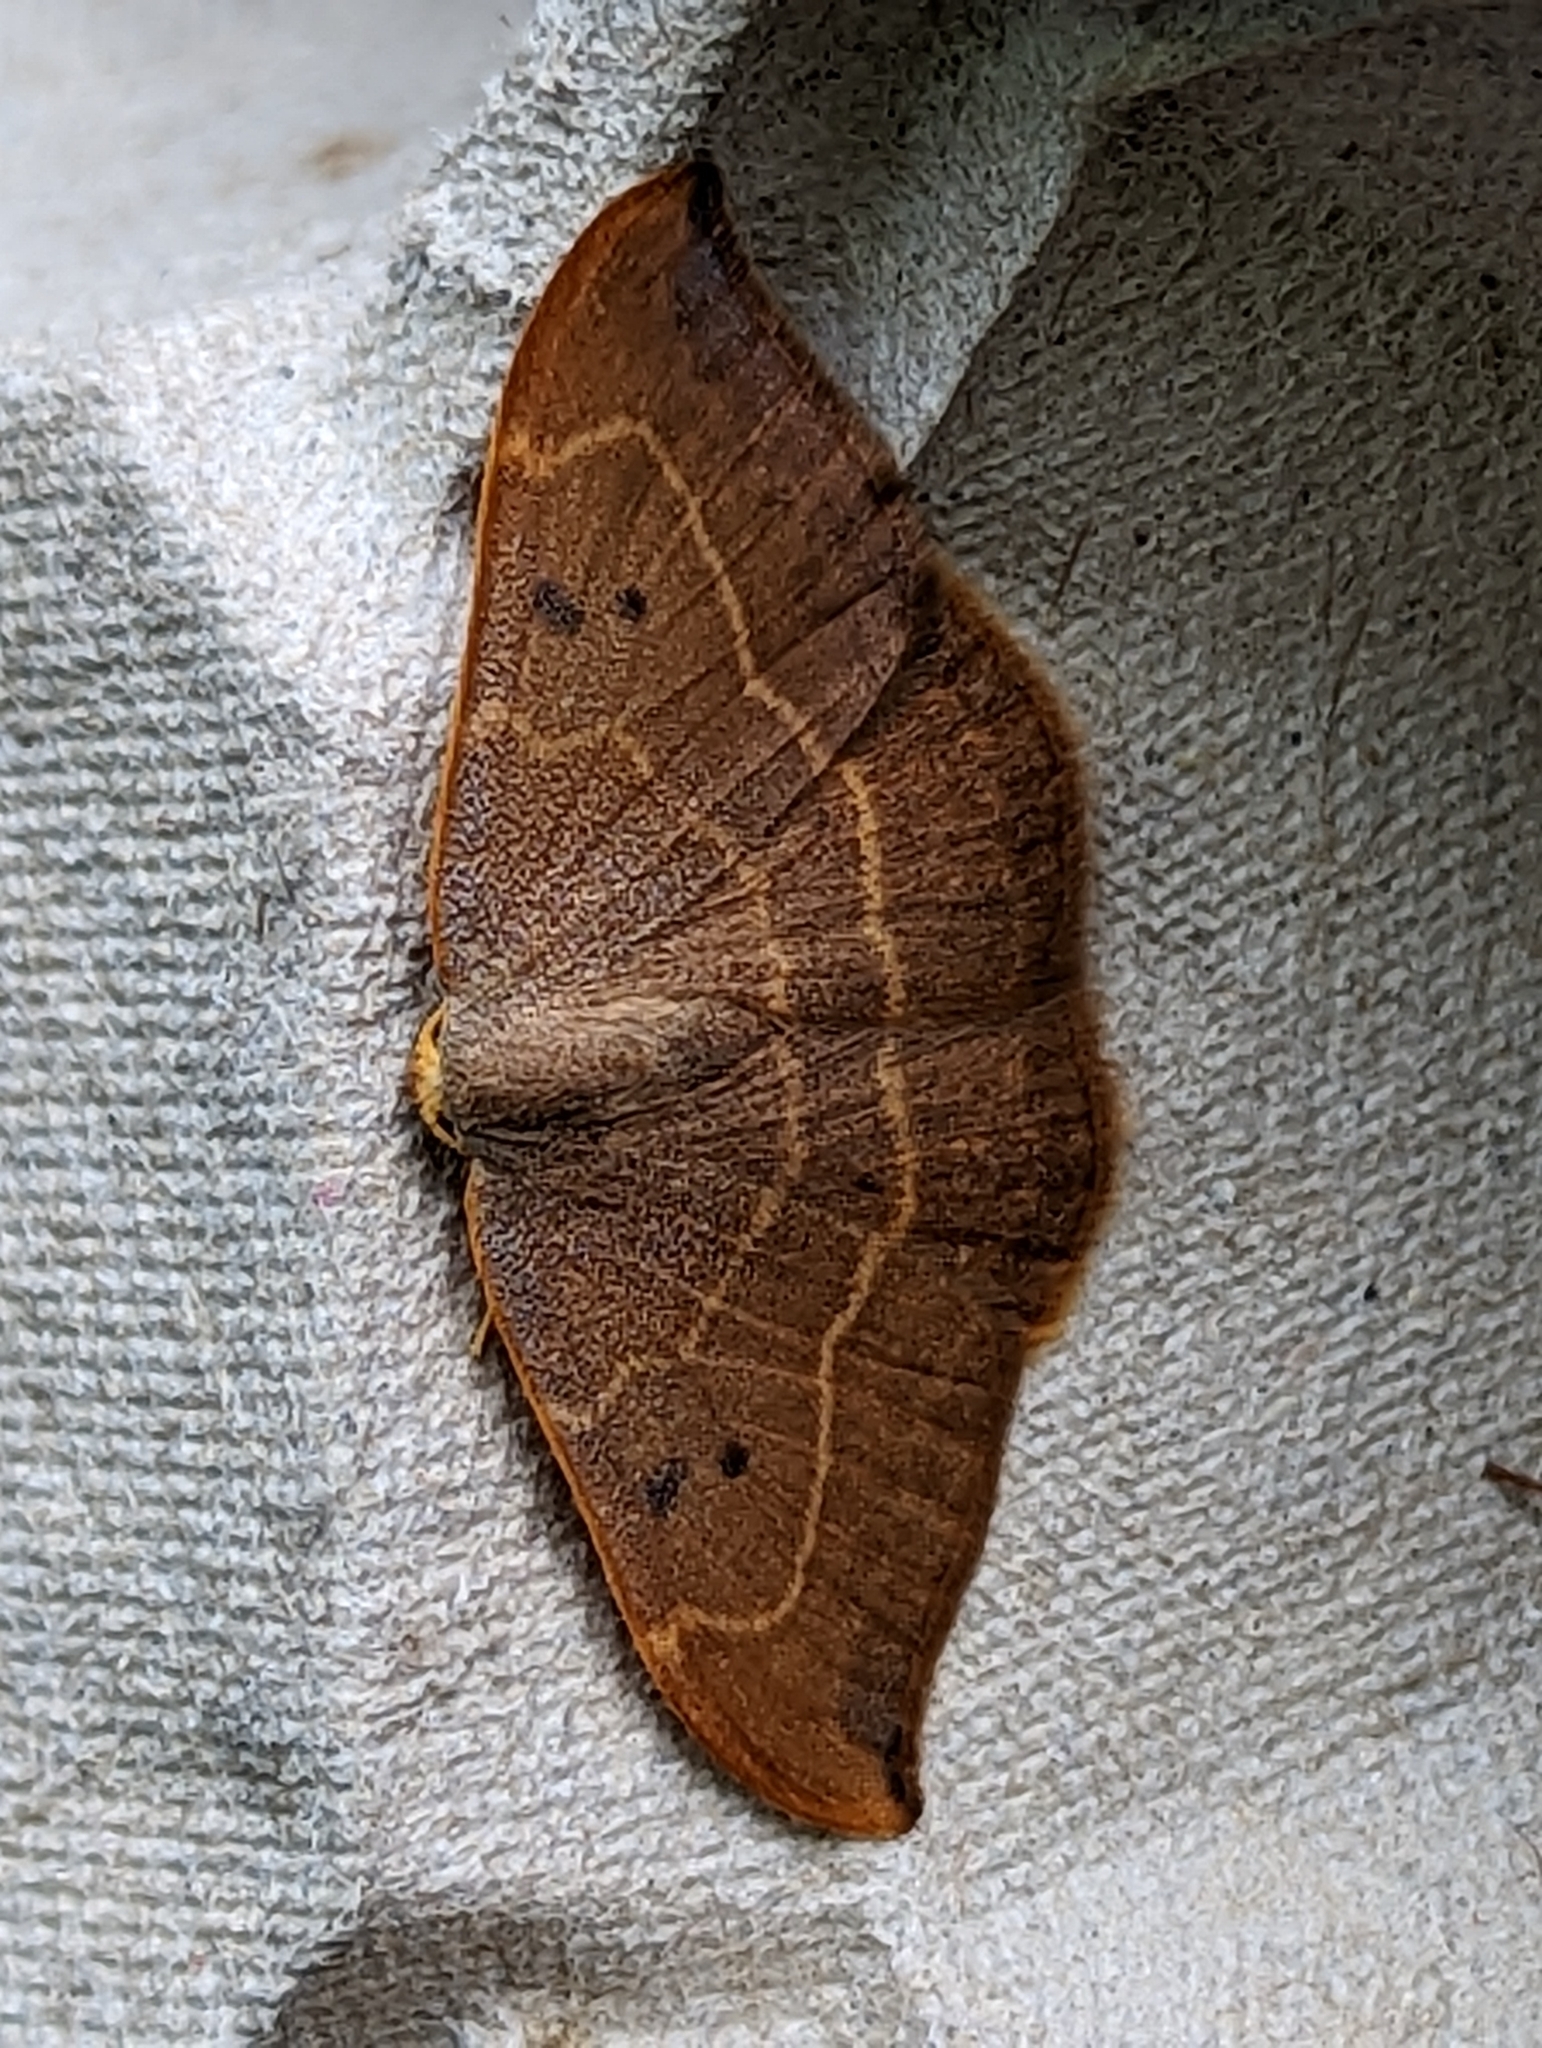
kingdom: Animalia
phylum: Arthropoda
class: Insecta
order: Lepidoptera
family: Drepanidae
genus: Watsonalla
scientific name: Watsonalla binaria
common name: Oak hook-tip
